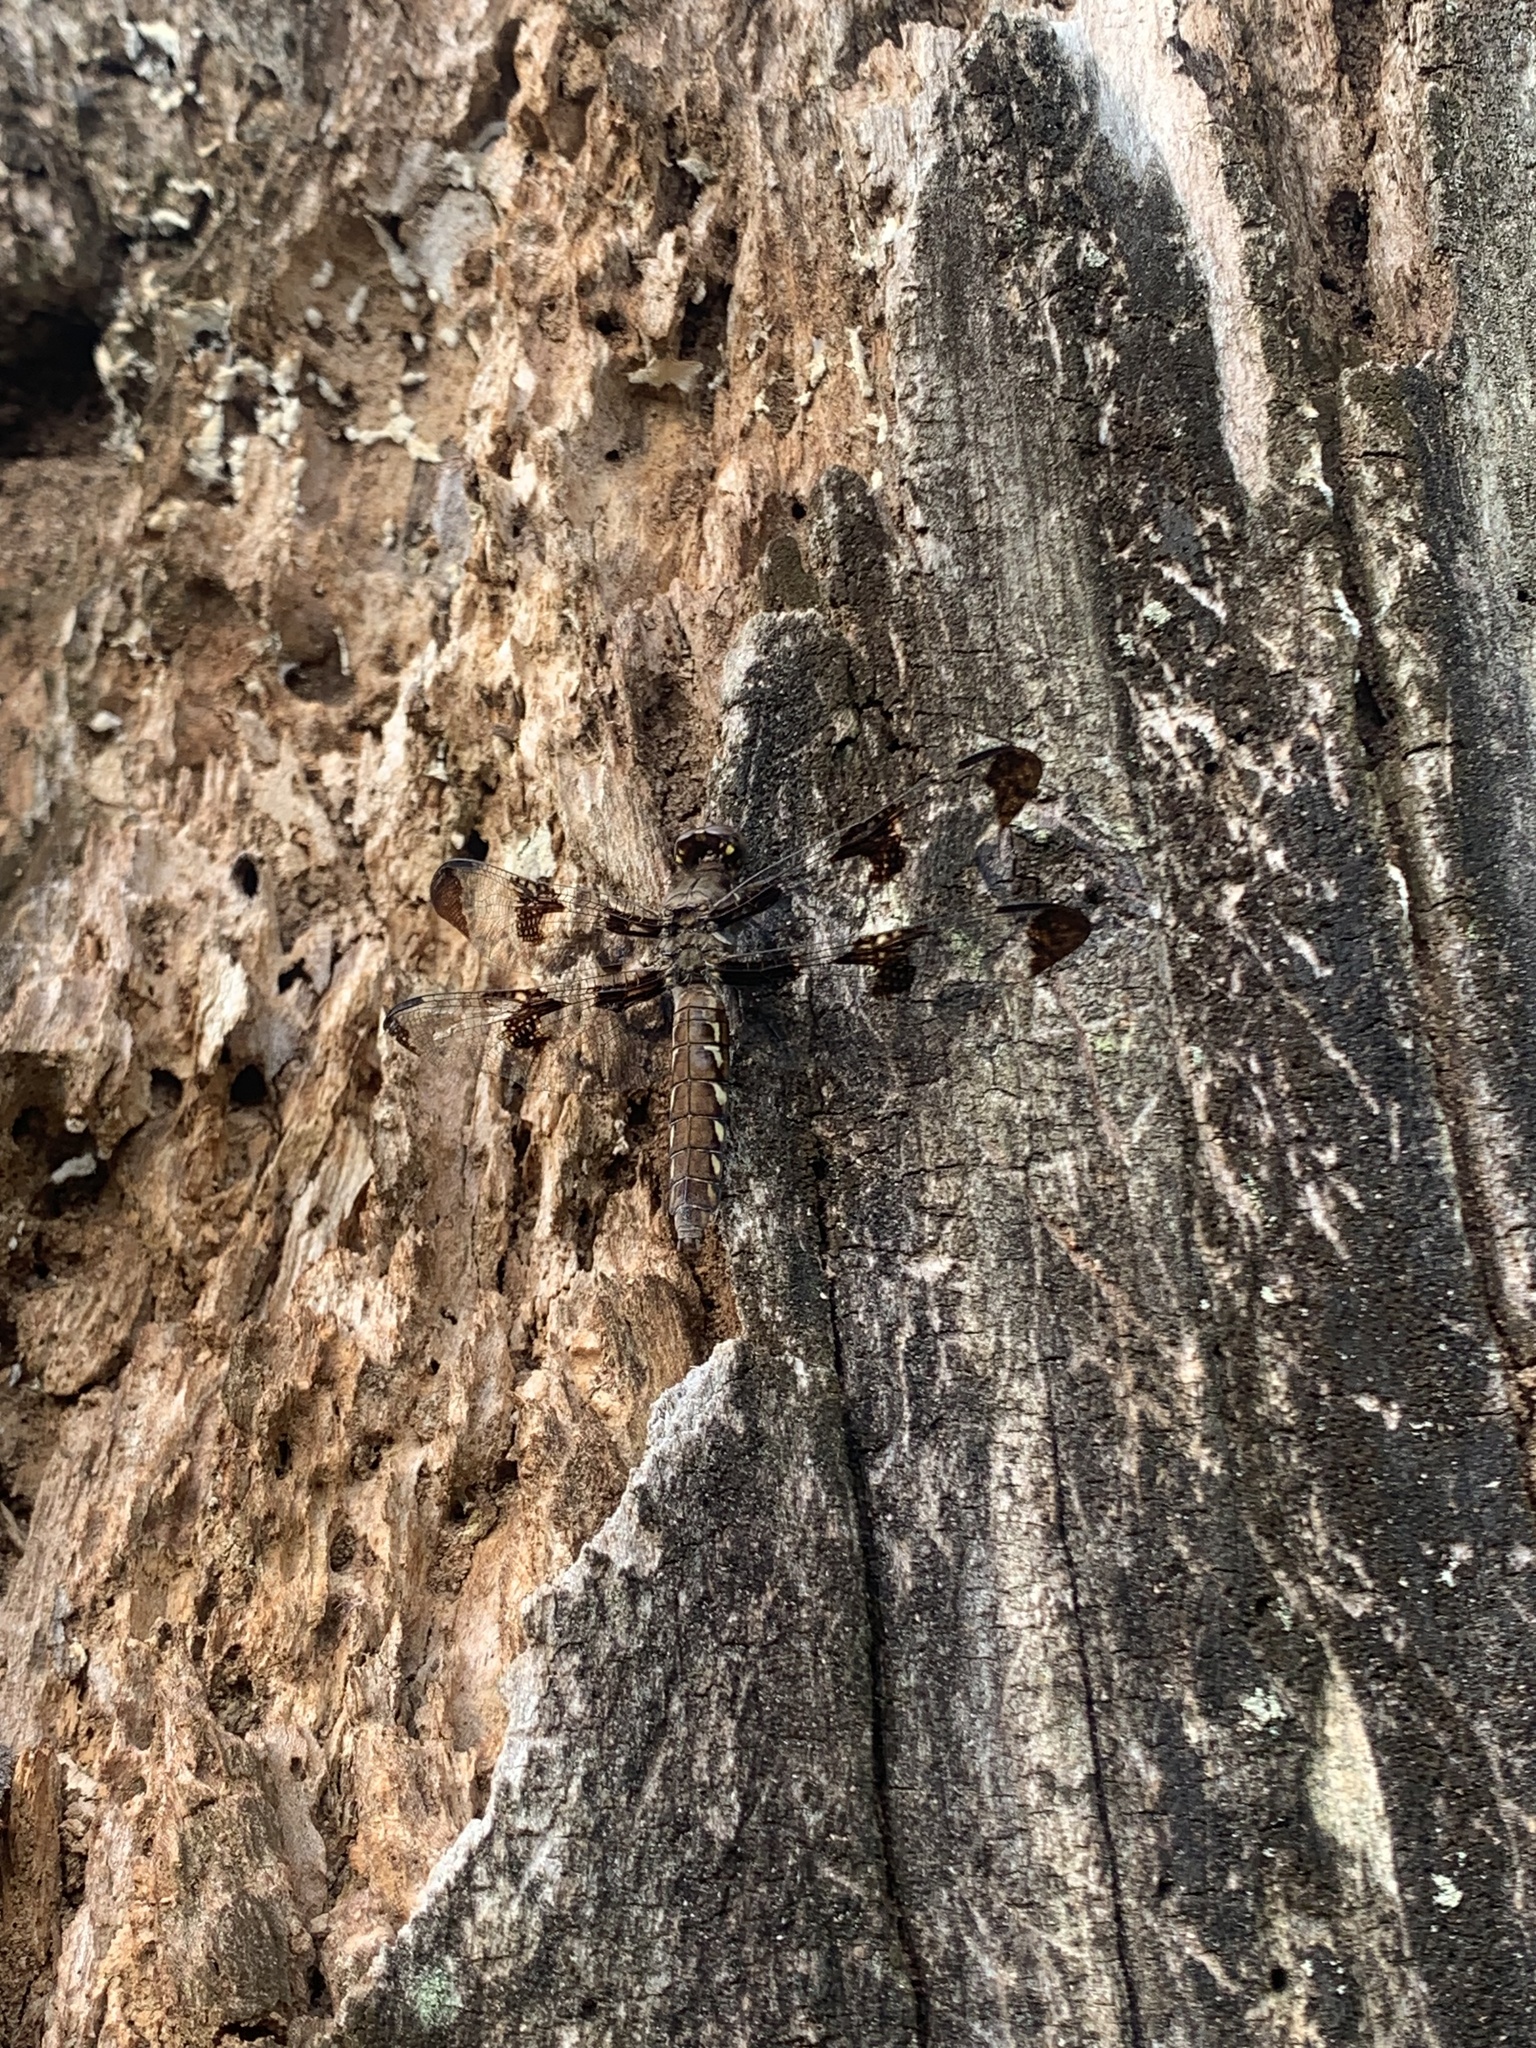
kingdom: Animalia
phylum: Arthropoda
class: Insecta
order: Odonata
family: Libellulidae
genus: Plathemis
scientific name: Plathemis lydia
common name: Common whitetail
